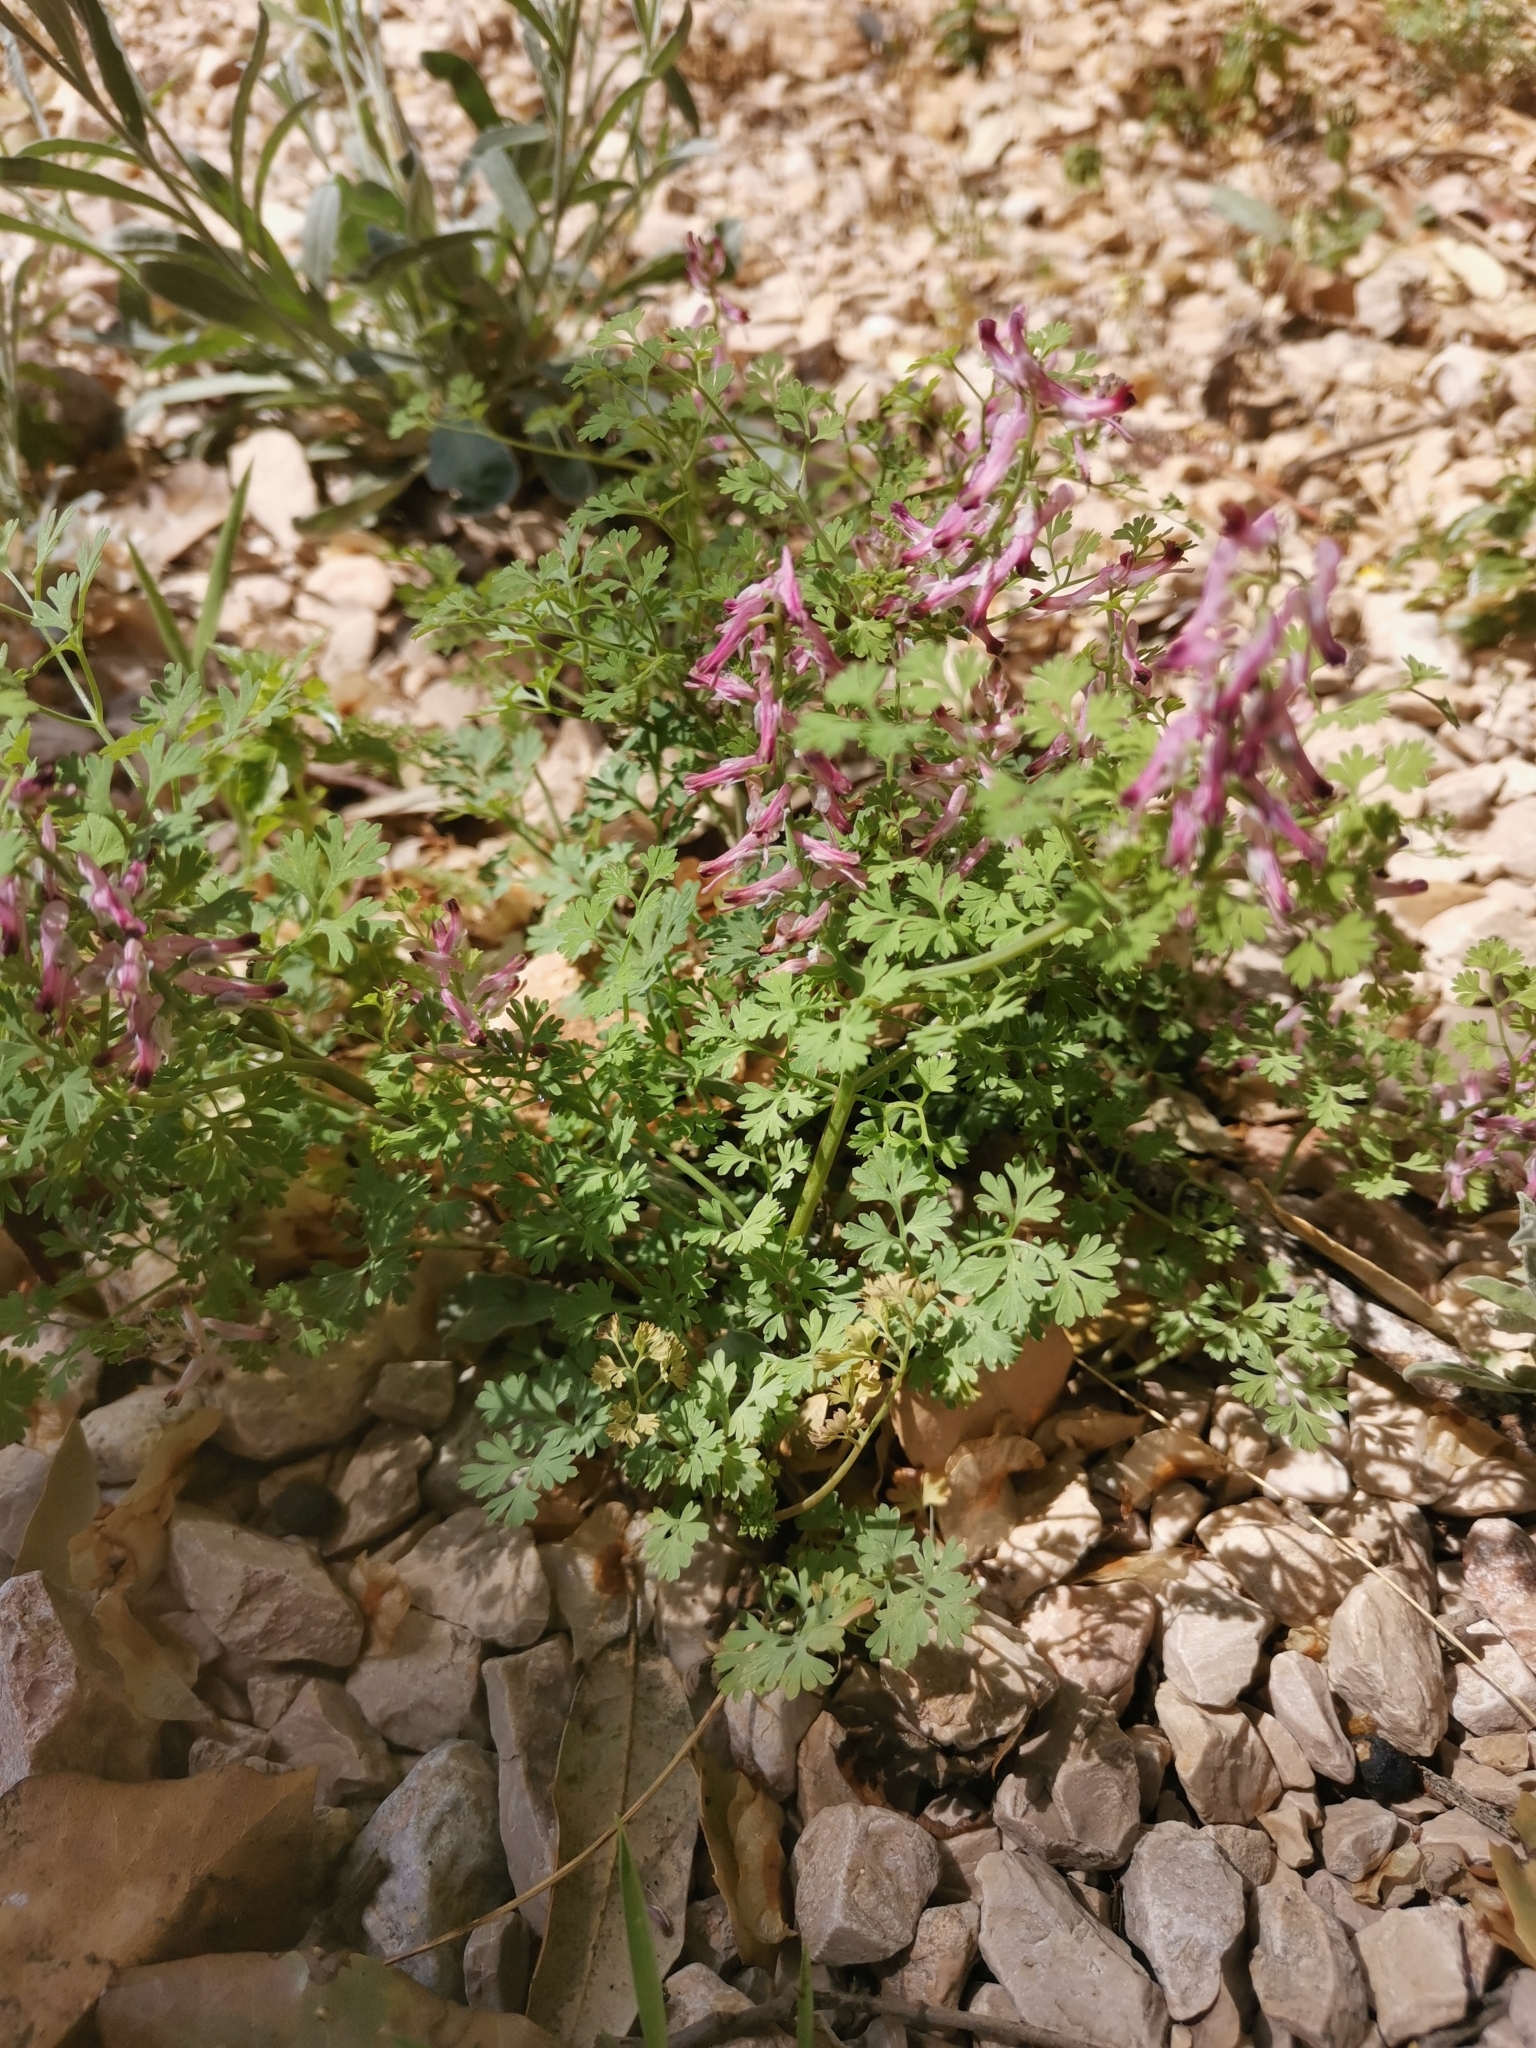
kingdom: Plantae
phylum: Tracheophyta
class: Magnoliopsida
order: Ranunculales
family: Papaveraceae
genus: Fumaria
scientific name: Fumaria petteri
